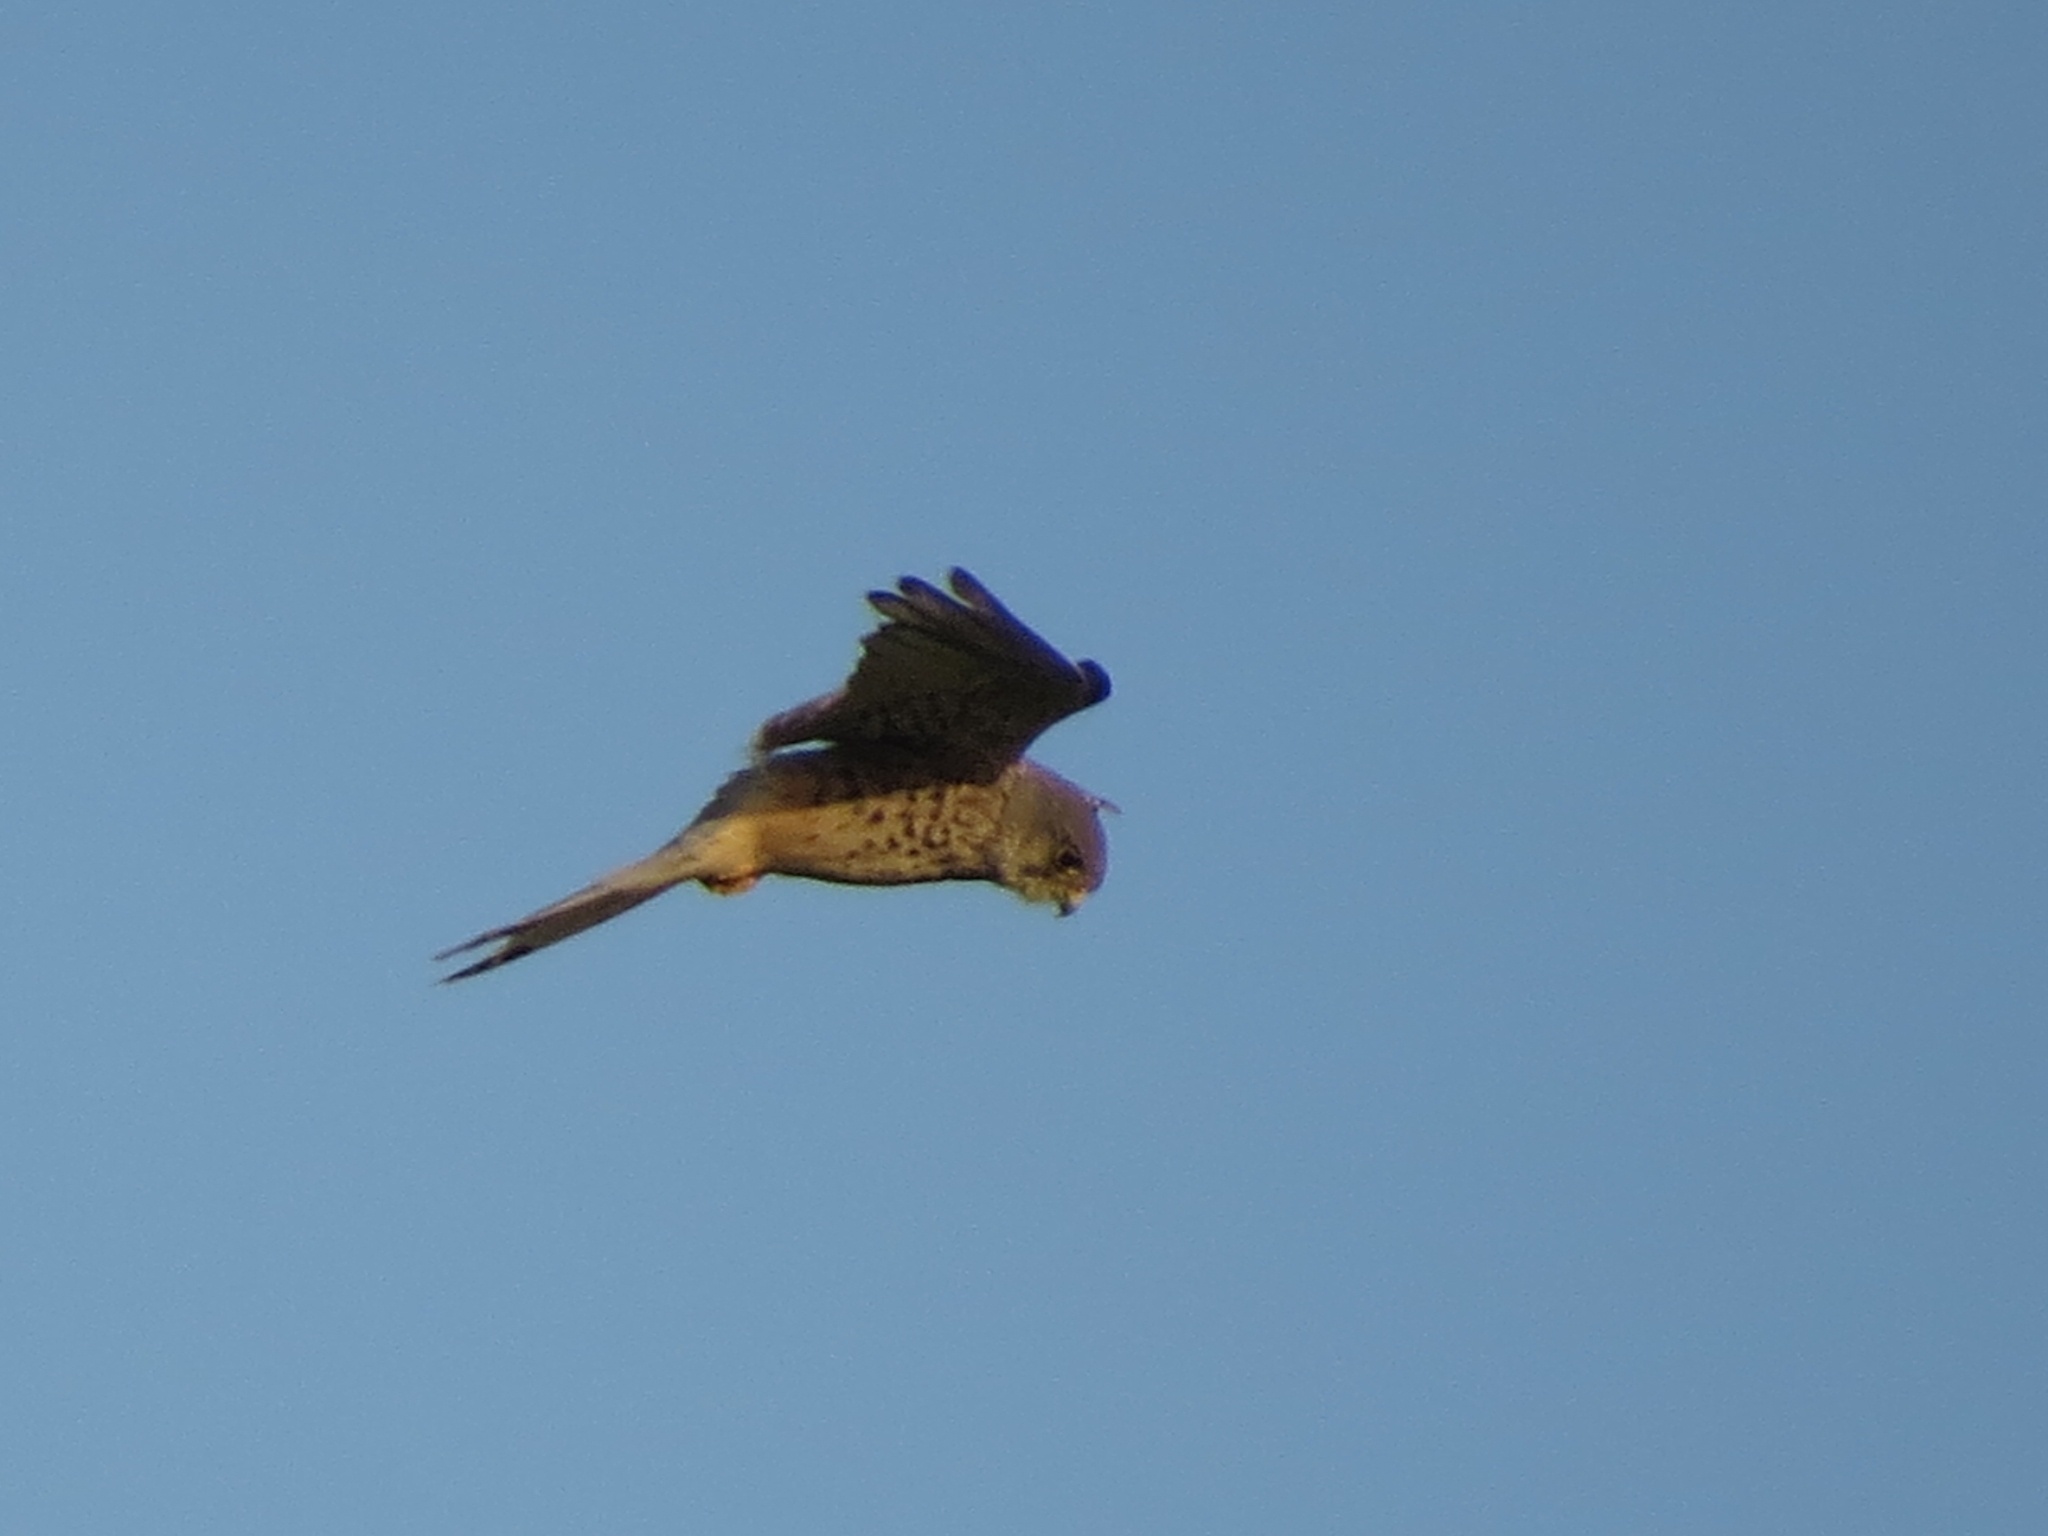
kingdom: Animalia
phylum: Chordata
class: Aves
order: Falconiformes
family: Falconidae
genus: Falco
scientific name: Falco tinnunculus
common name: Common kestrel
